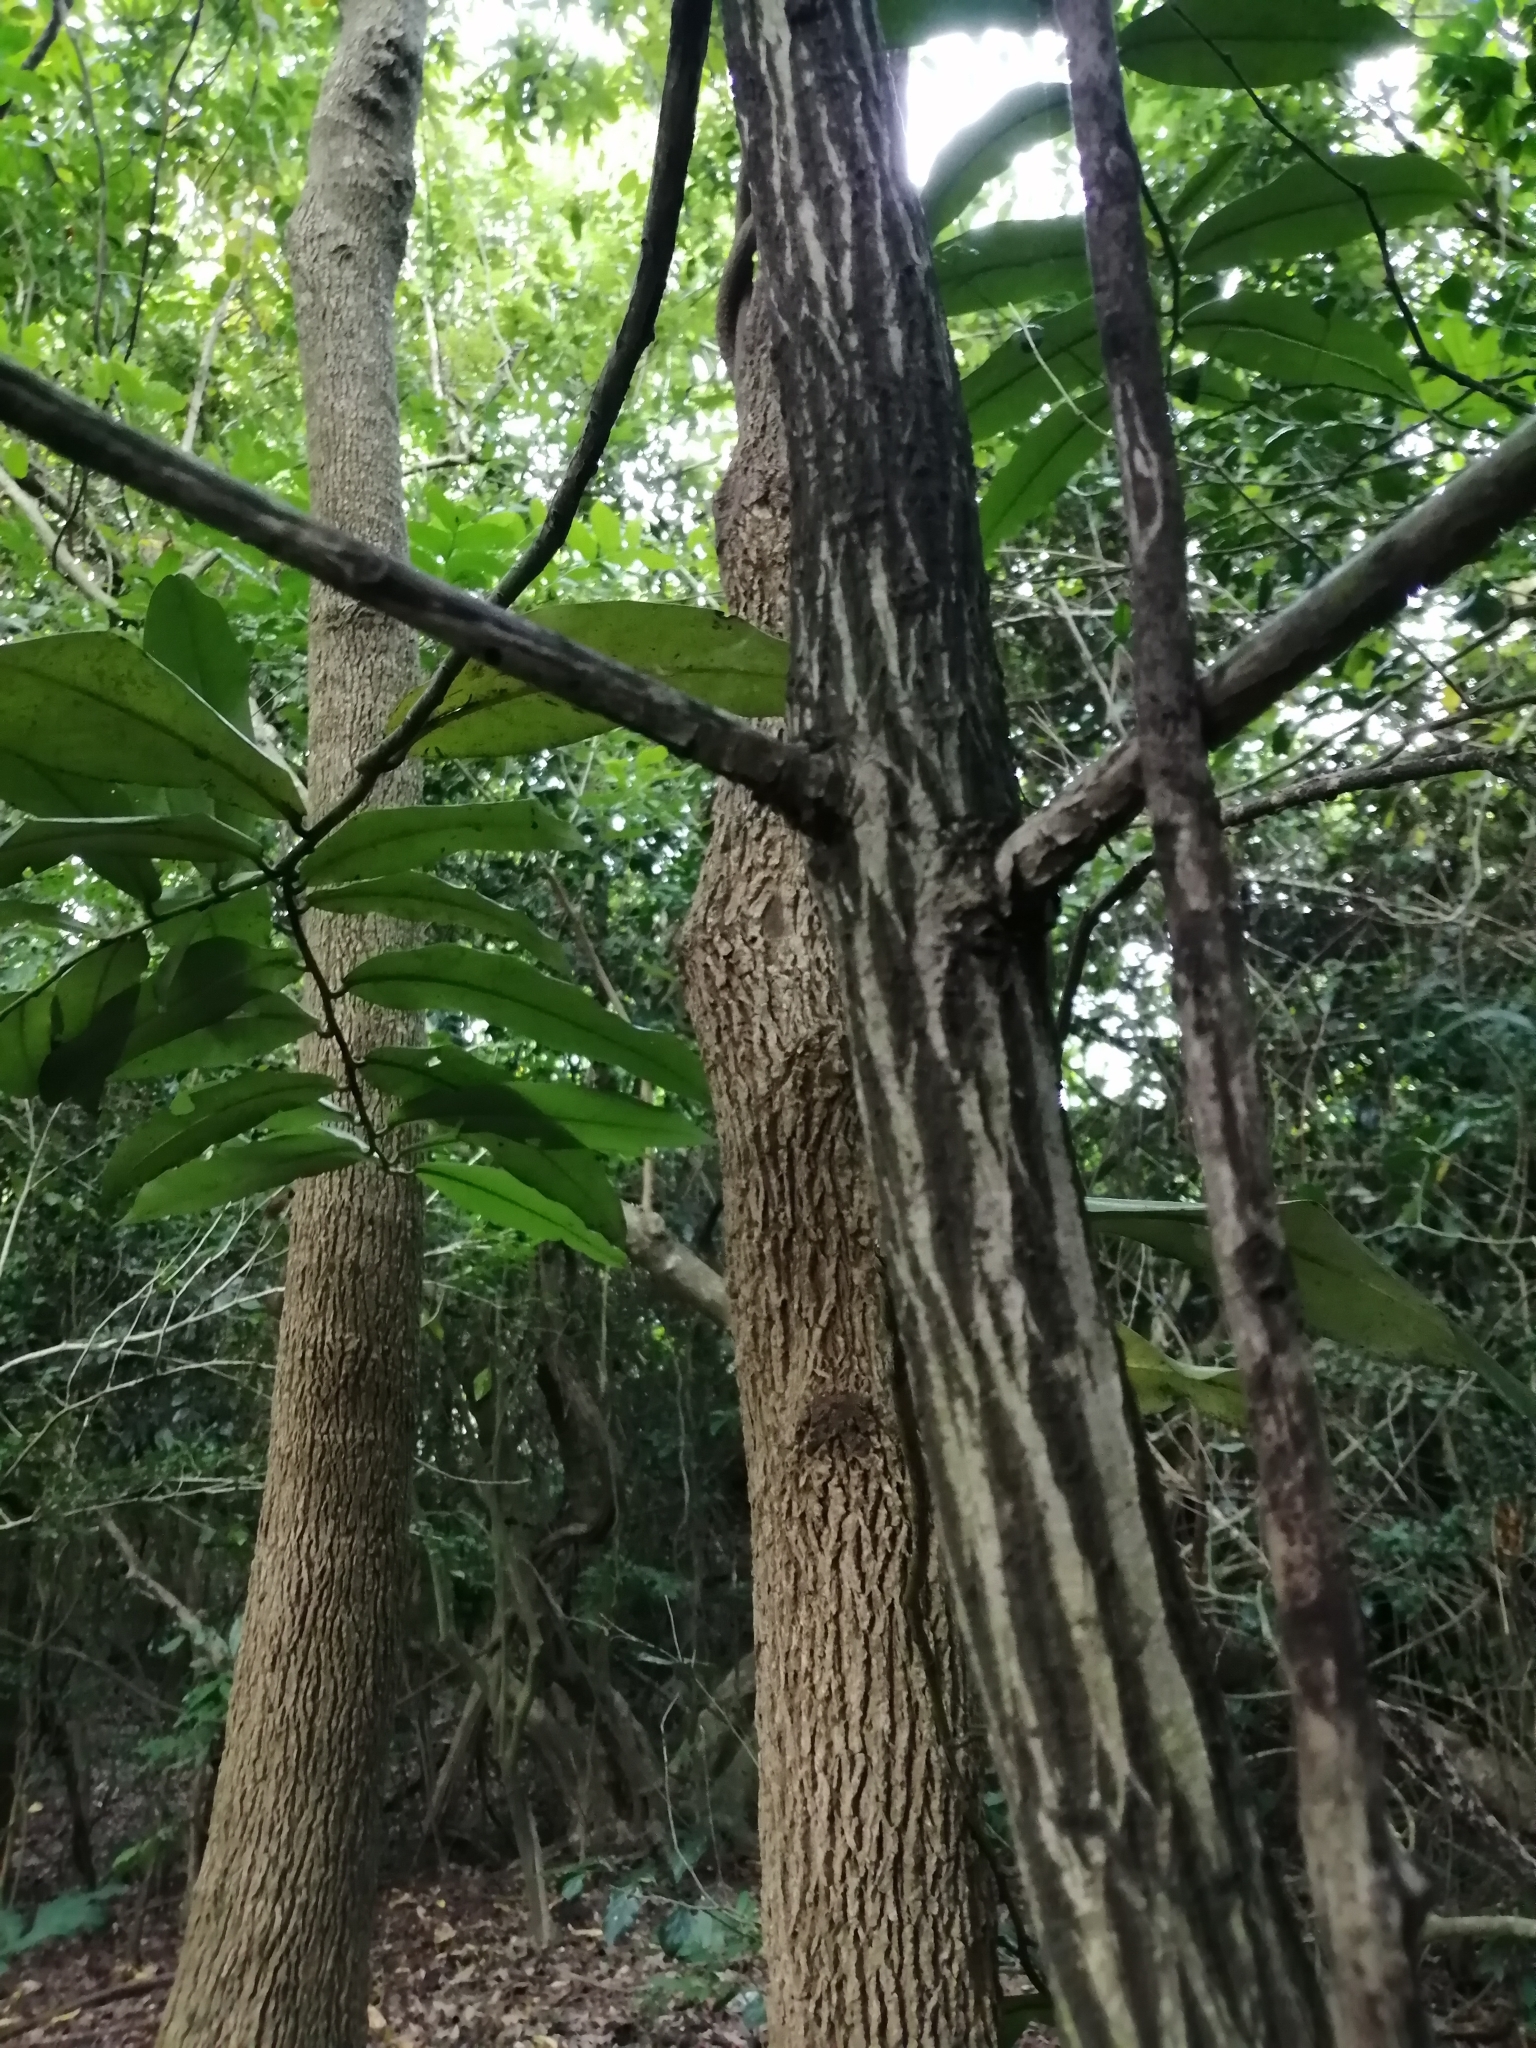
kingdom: Plantae
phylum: Tracheophyta
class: Magnoliopsida
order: Ericales
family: Ebenaceae
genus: Diospyros
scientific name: Diospyros blancoi
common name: Mabola-tree
